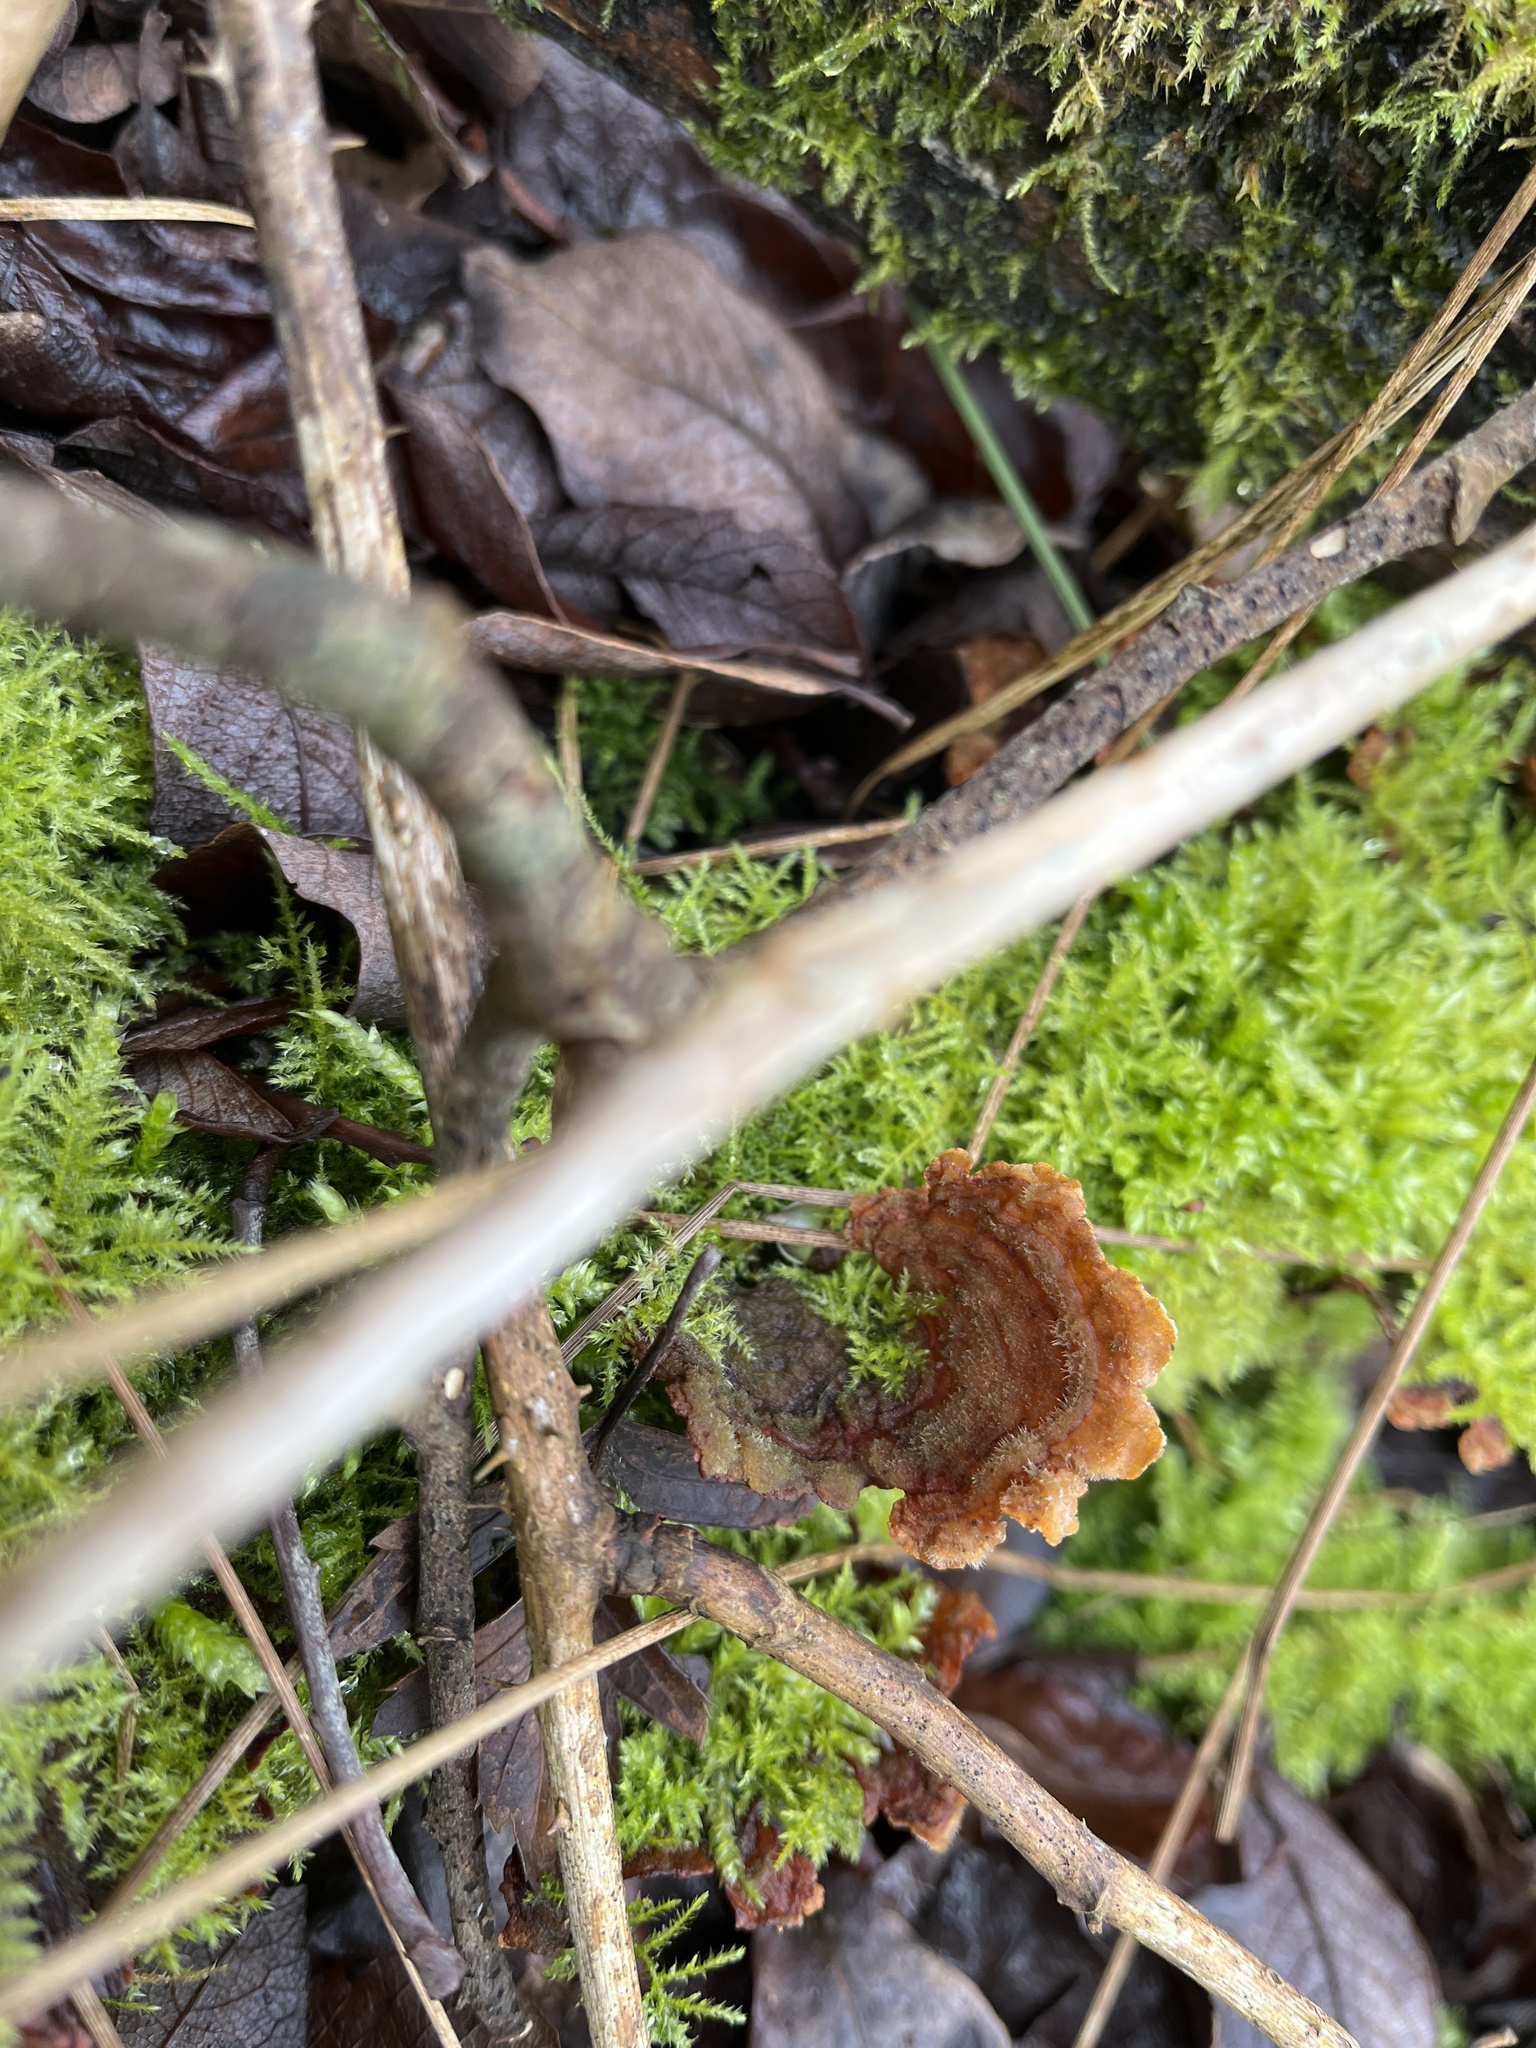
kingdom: Fungi
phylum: Basidiomycota
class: Agaricomycetes
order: Russulales
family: Stereaceae
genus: Stereum
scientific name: Stereum hirsutum
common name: Hairy curtain crust
